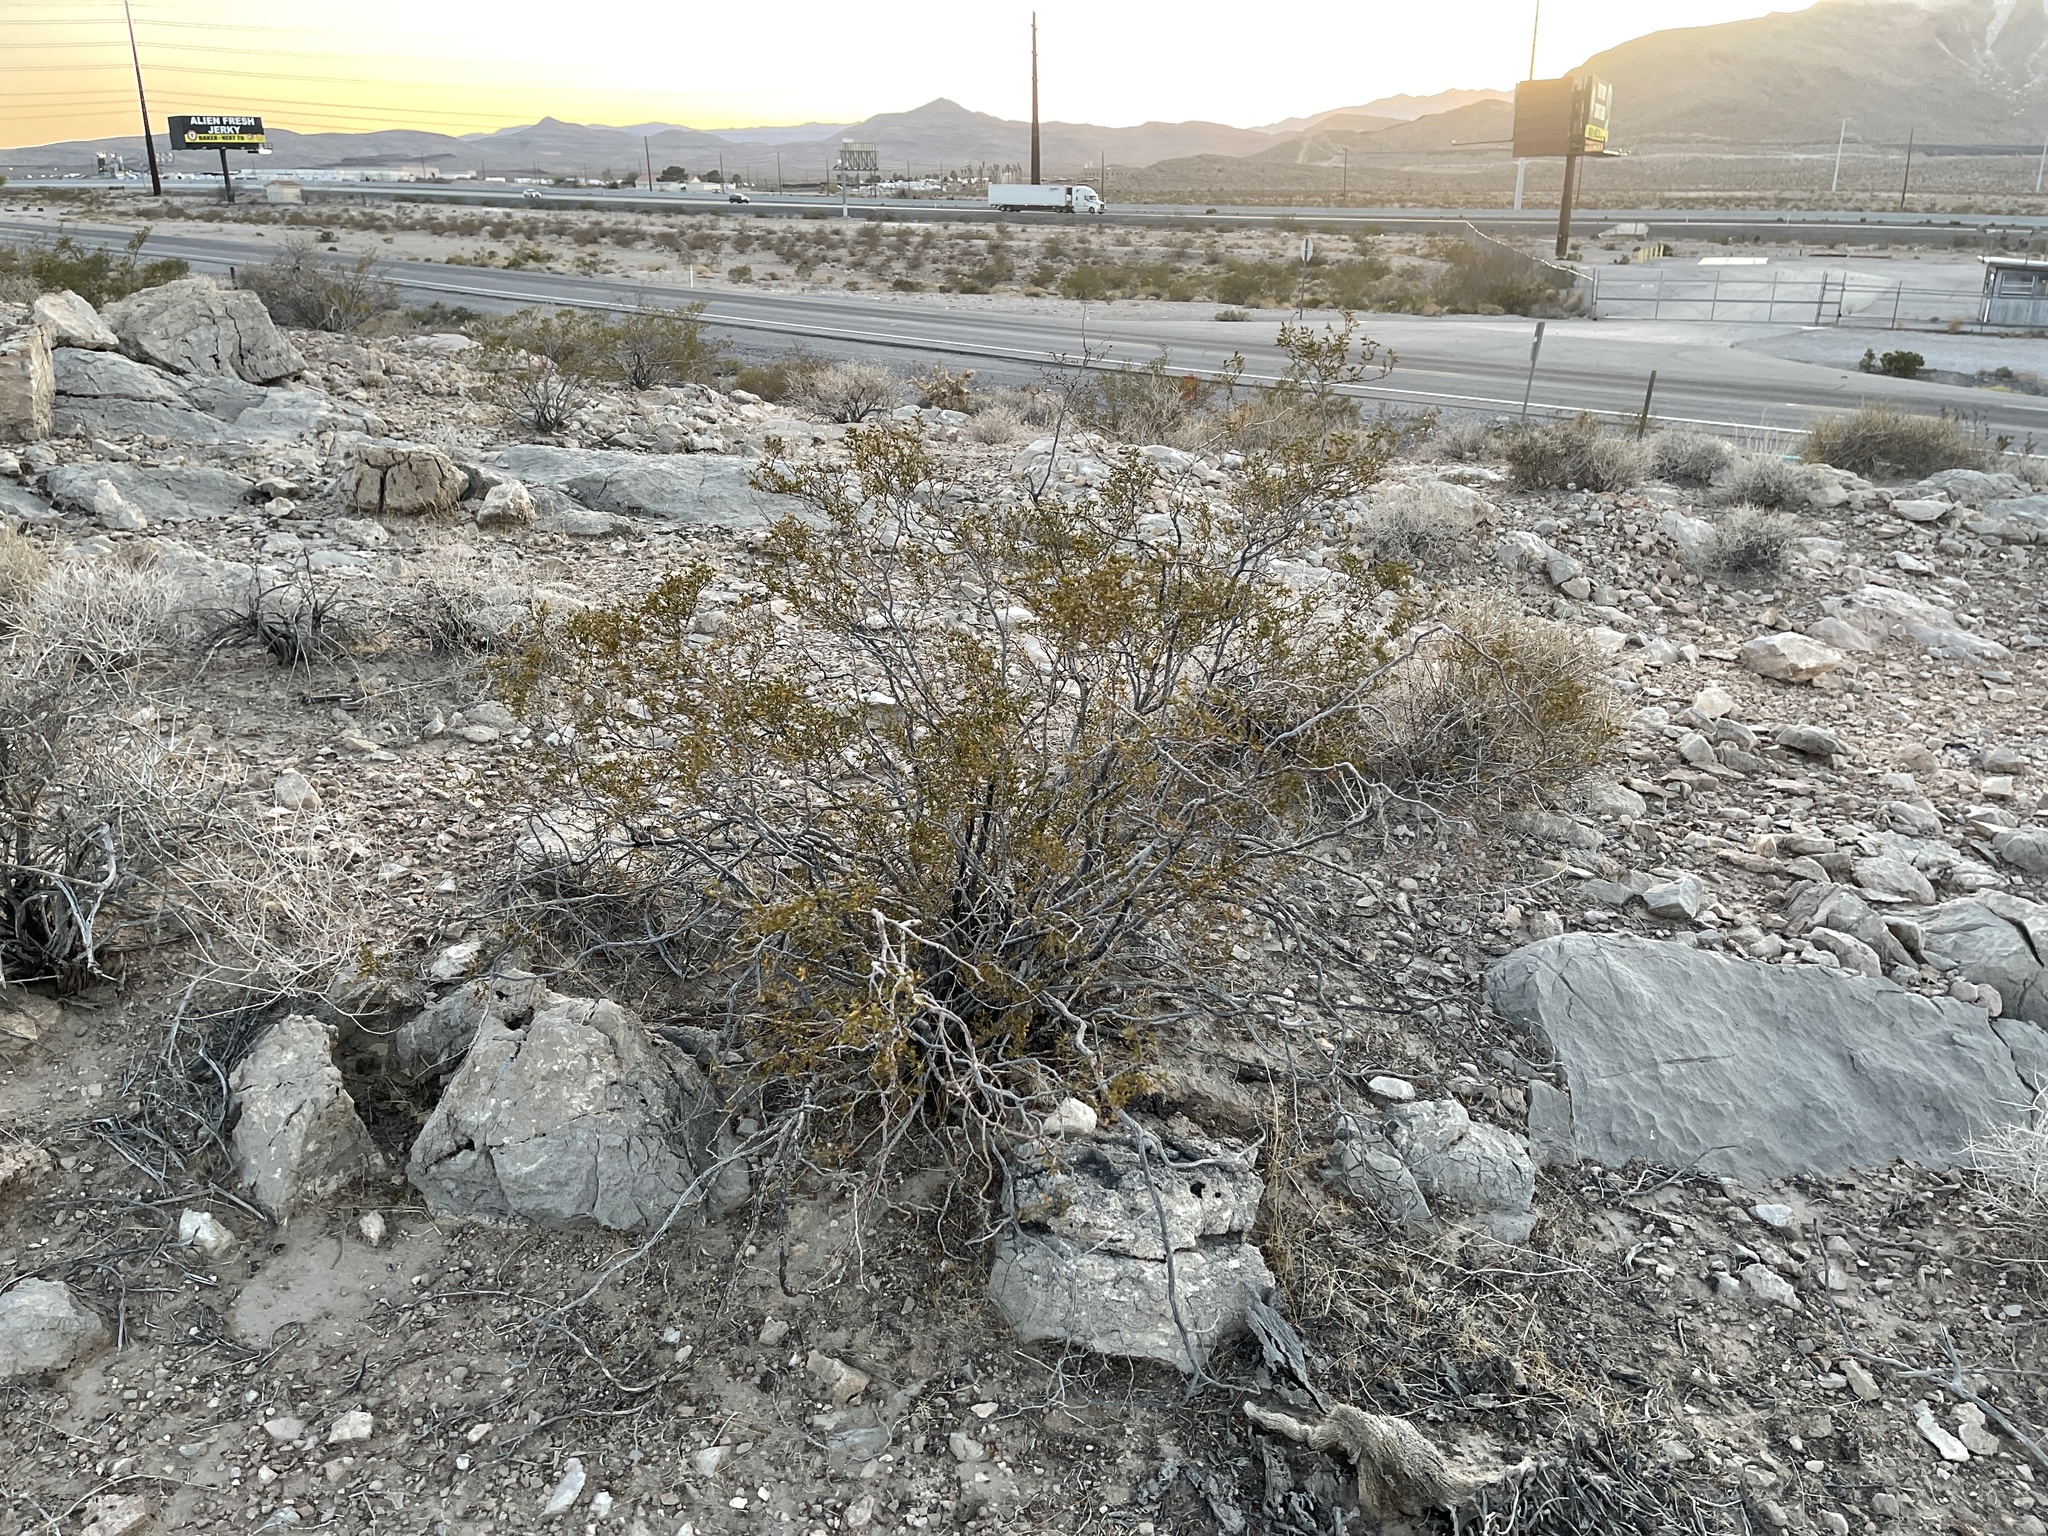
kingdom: Plantae
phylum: Tracheophyta
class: Magnoliopsida
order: Zygophyllales
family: Zygophyllaceae
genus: Larrea
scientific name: Larrea tridentata
